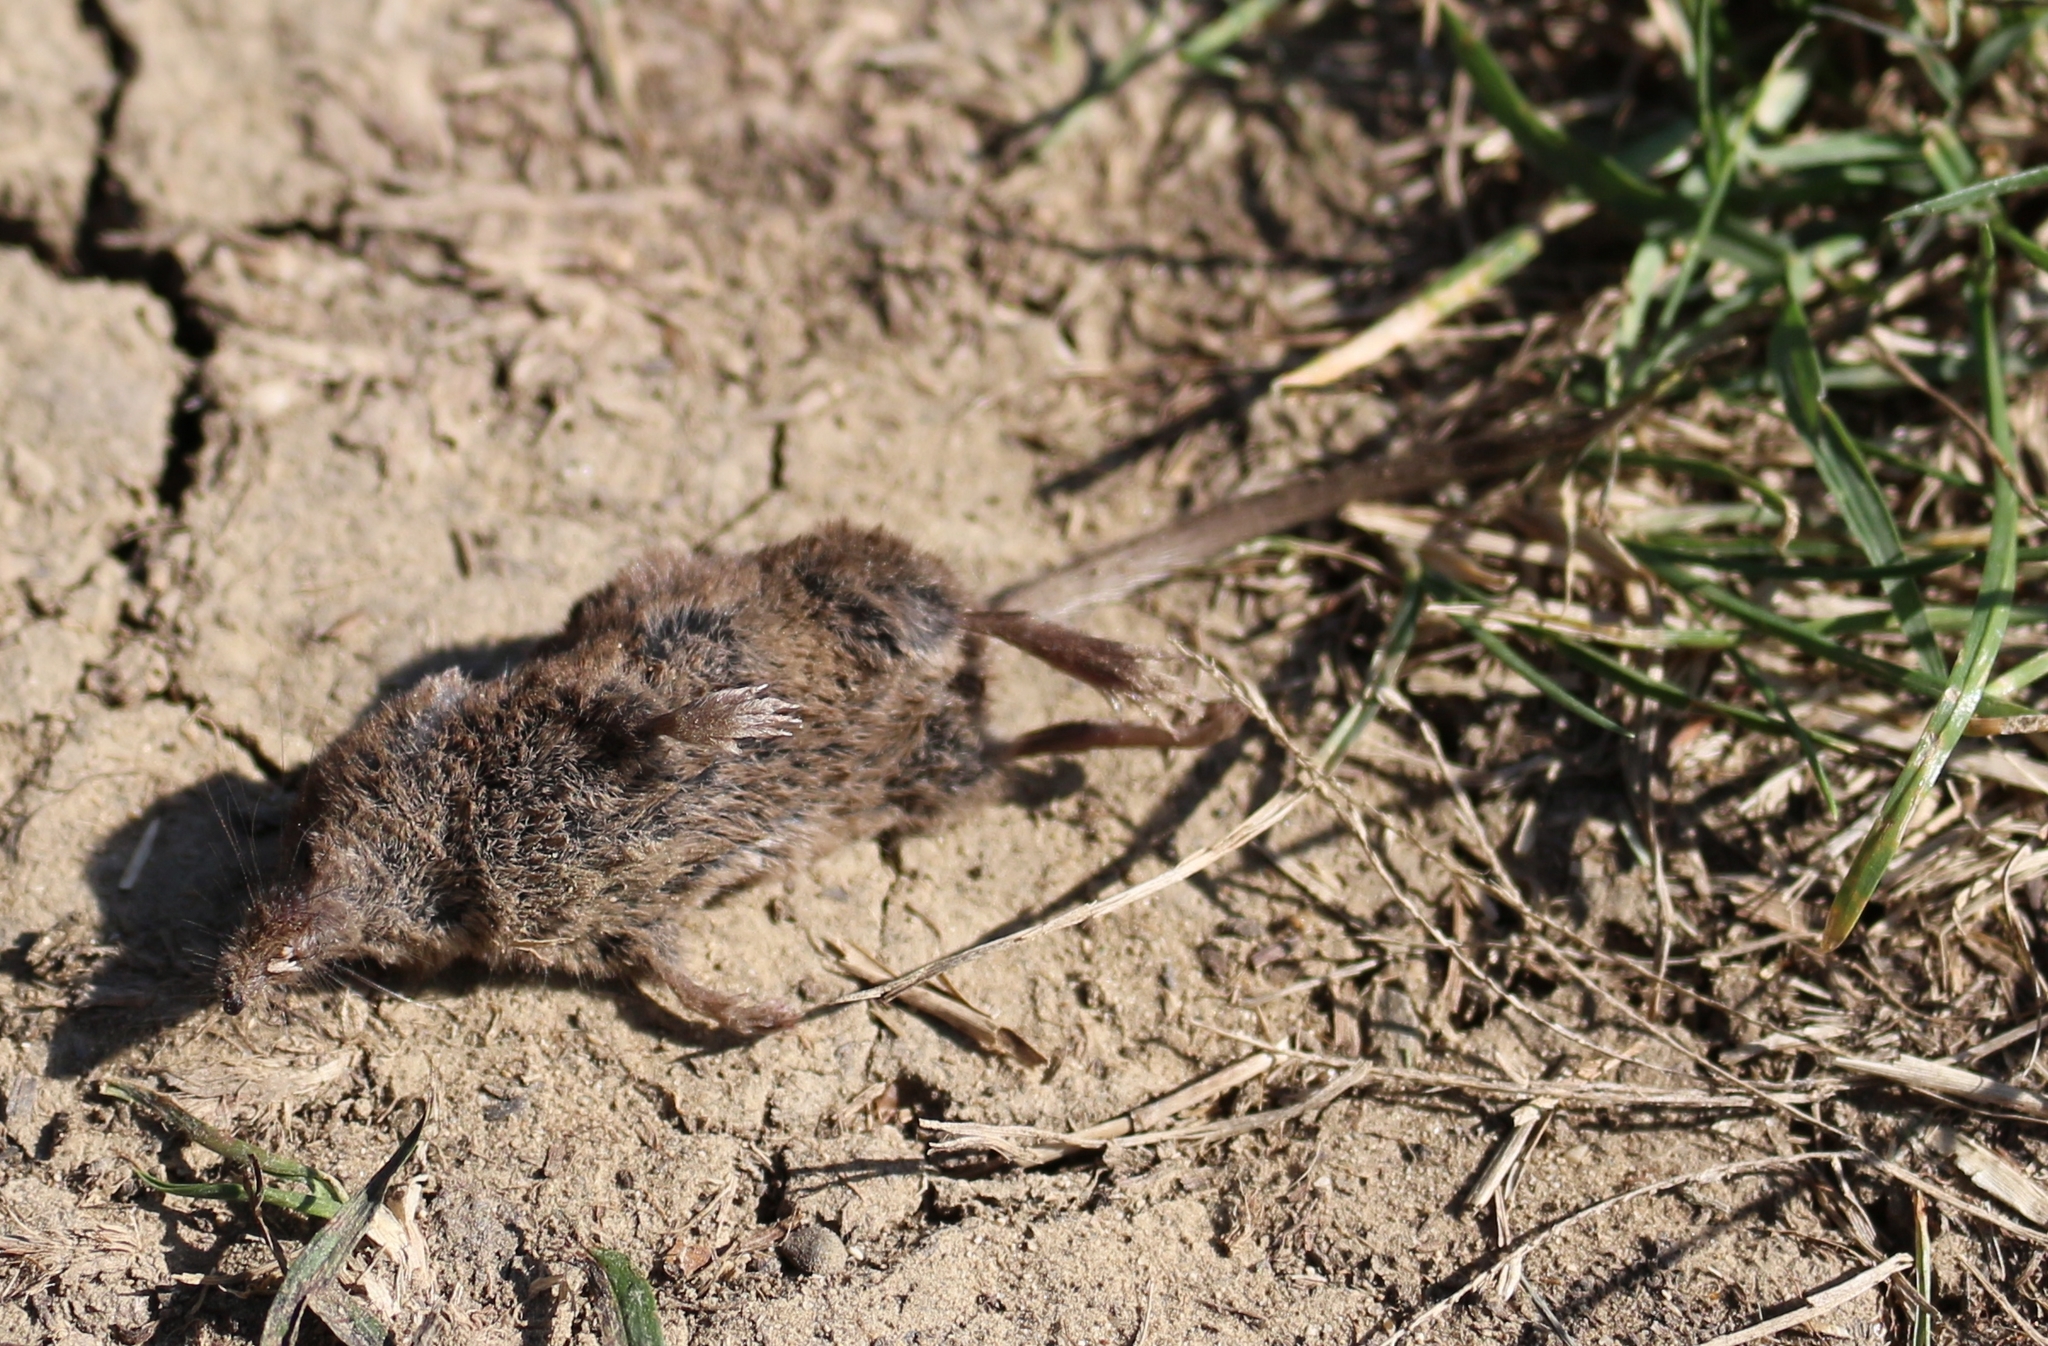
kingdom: Animalia
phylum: Chordata
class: Mammalia
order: Soricomorpha
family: Soricidae
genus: Sorex
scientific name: Sorex volnuchini
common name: Caucasian pygmy shrew
